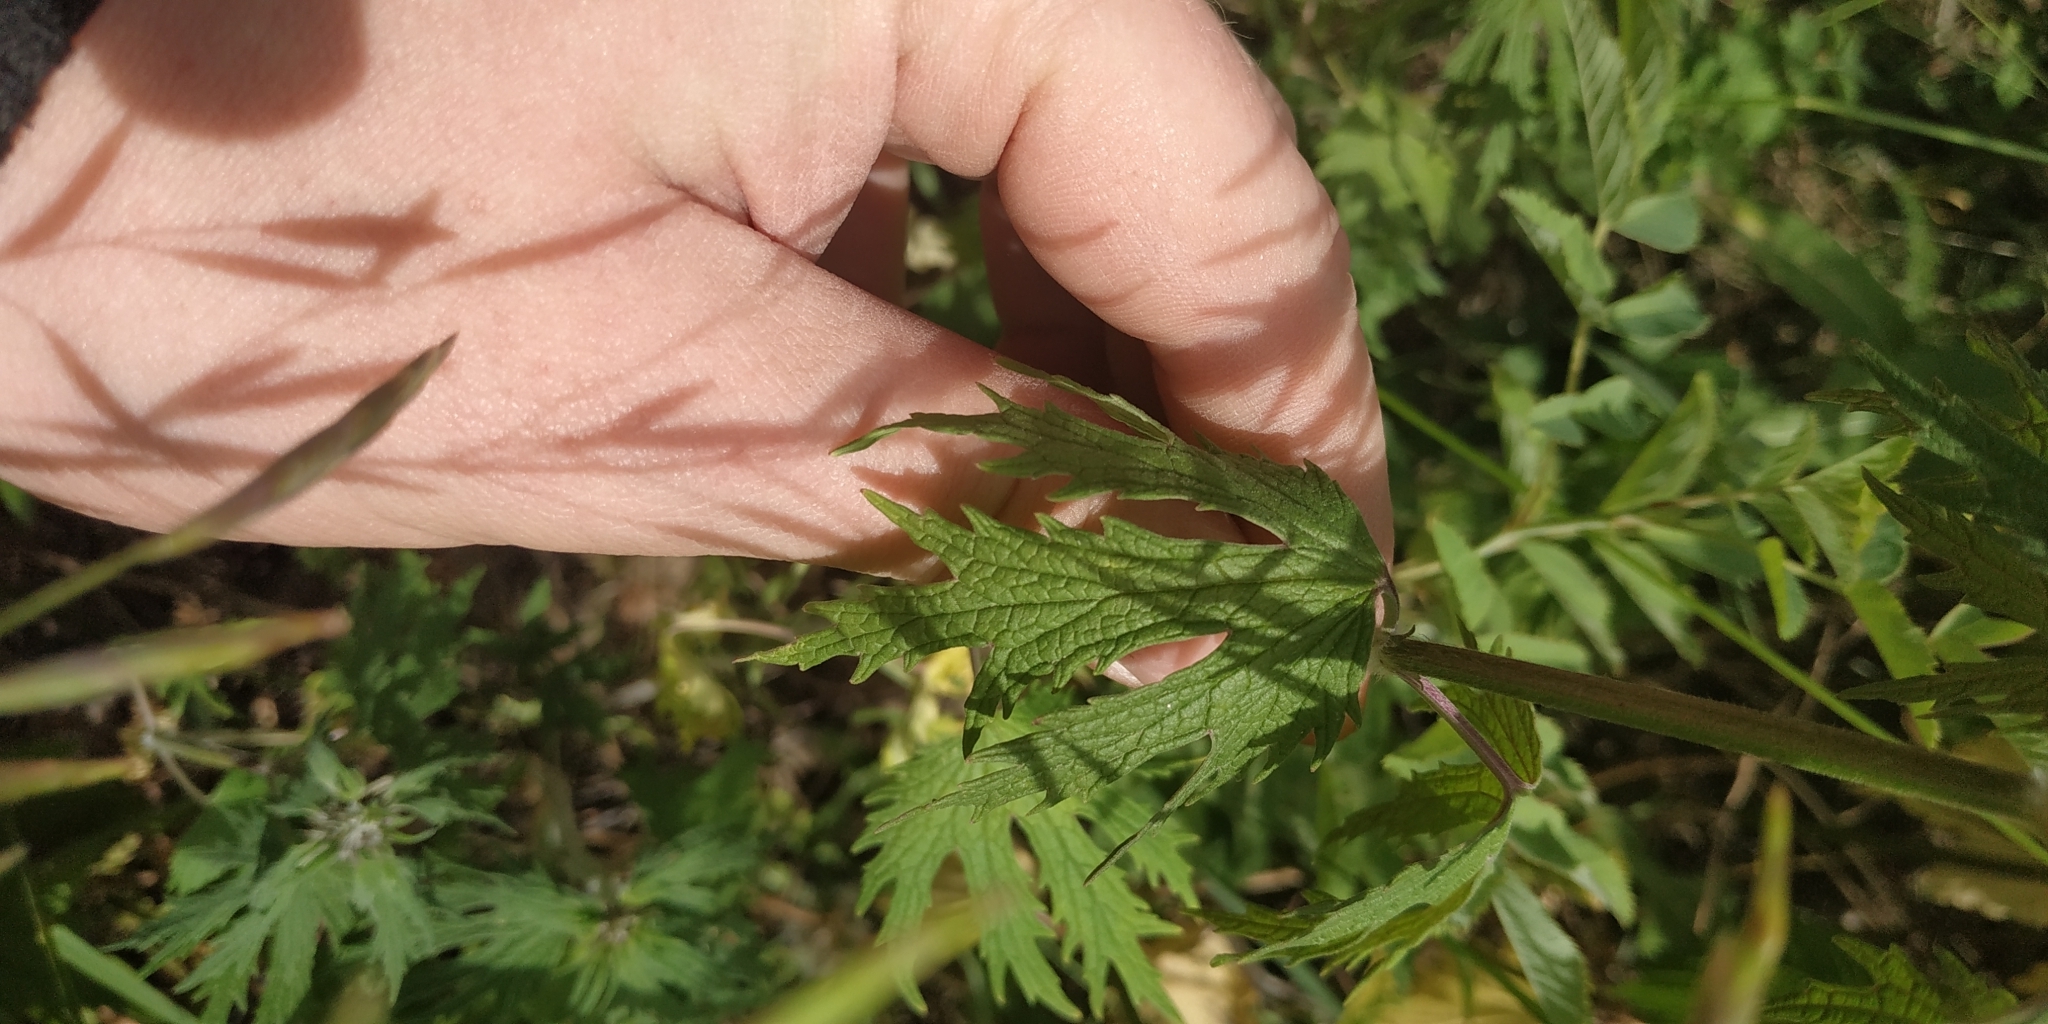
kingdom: Plantae
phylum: Tracheophyta
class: Magnoliopsida
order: Lamiales
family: Lamiaceae
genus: Leonurus
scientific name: Leonurus glaucescens
